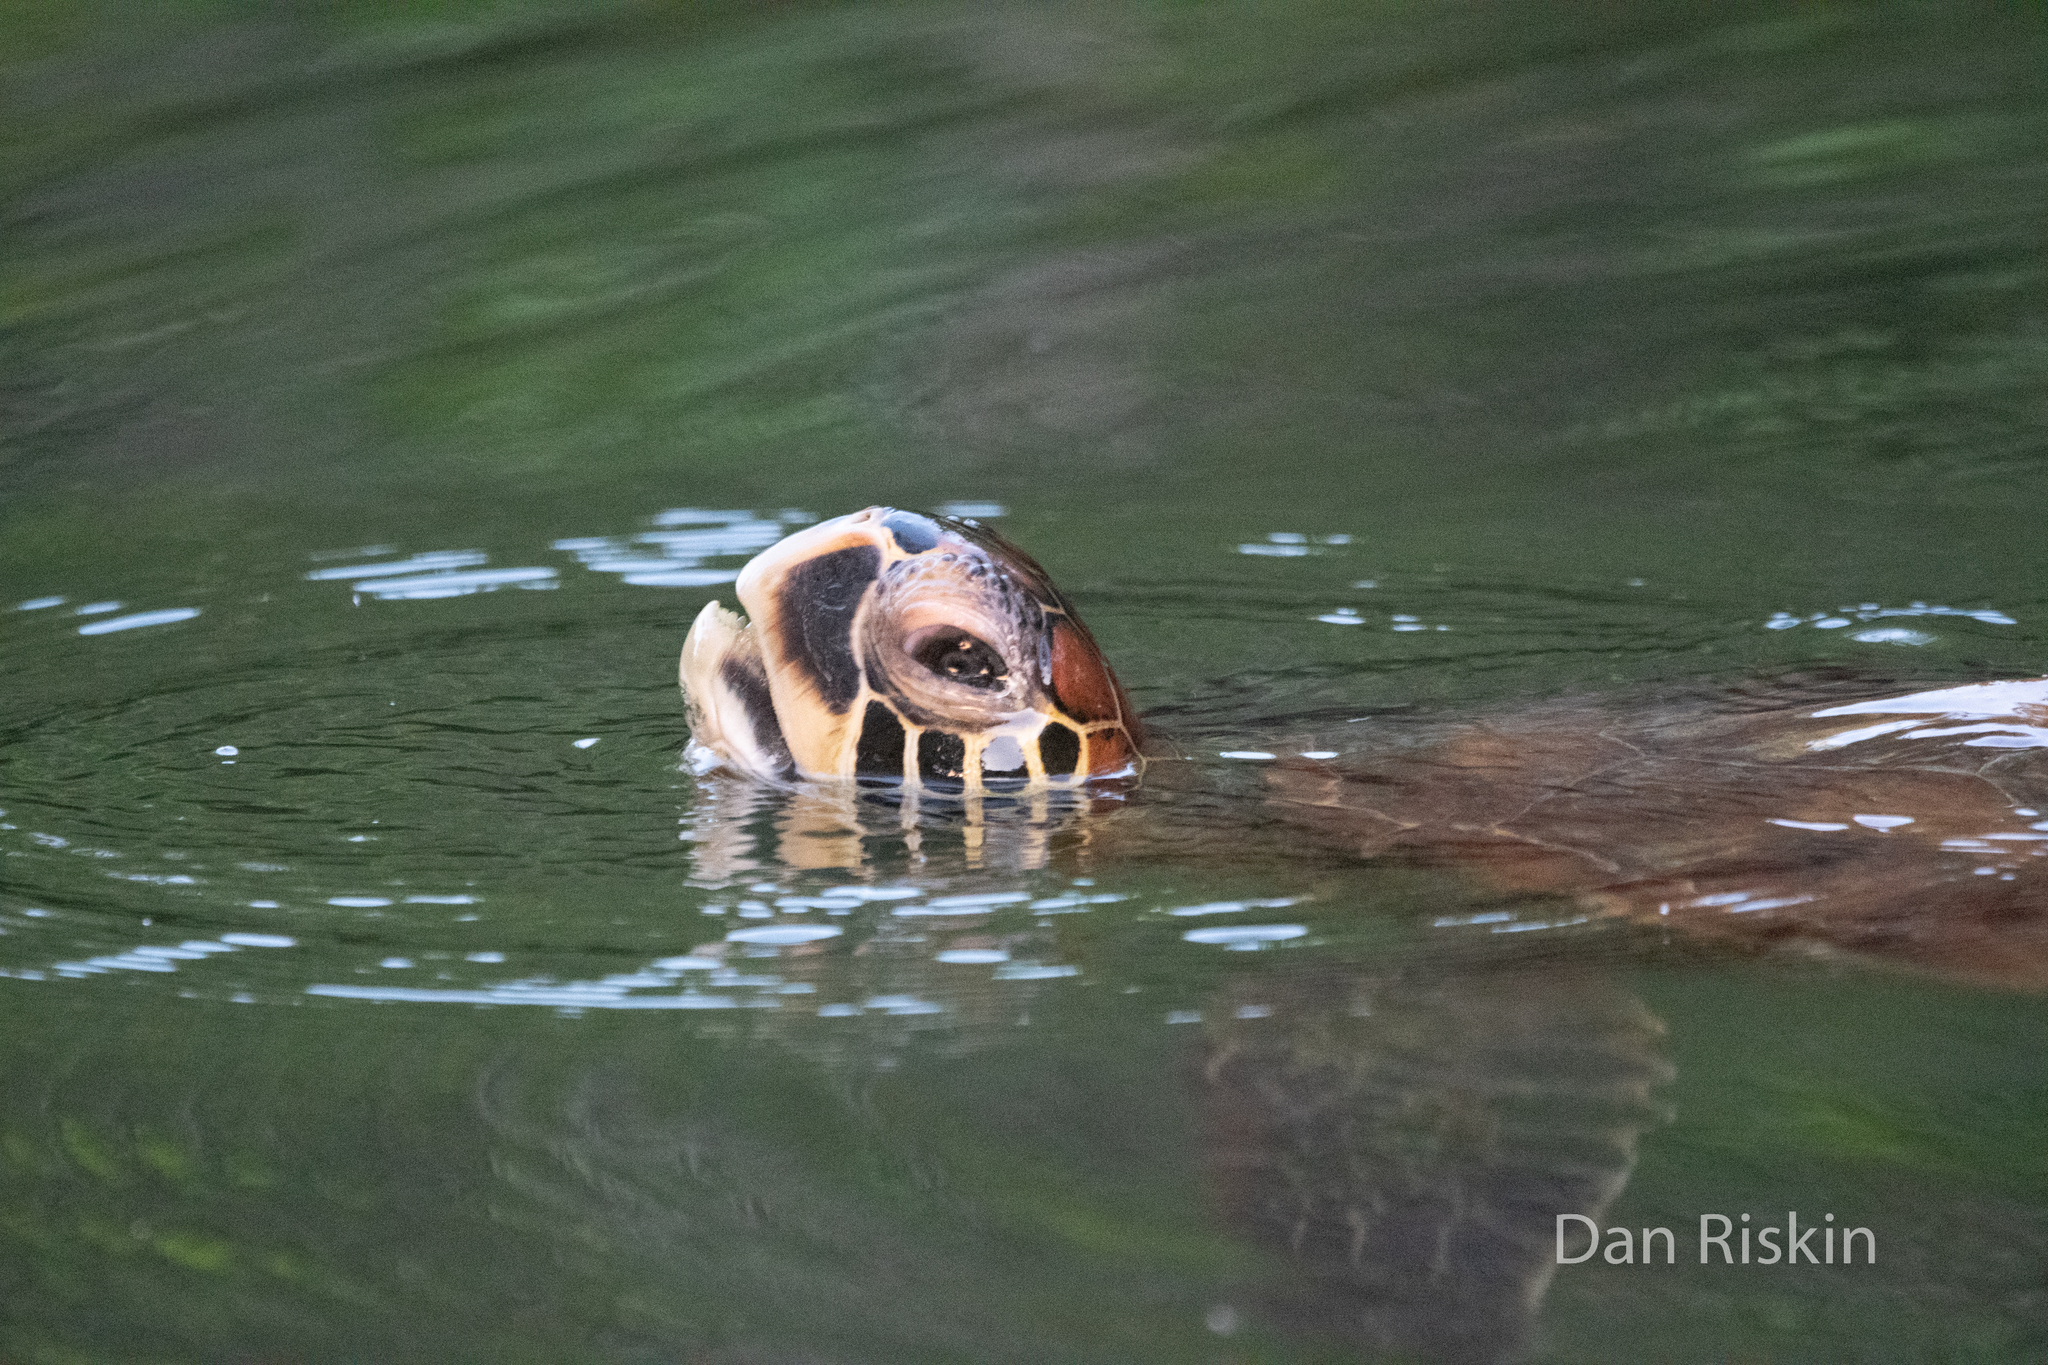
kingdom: Animalia
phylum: Chordata
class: Testudines
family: Cheloniidae
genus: Chelonia
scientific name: Chelonia mydas
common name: Green turtle
